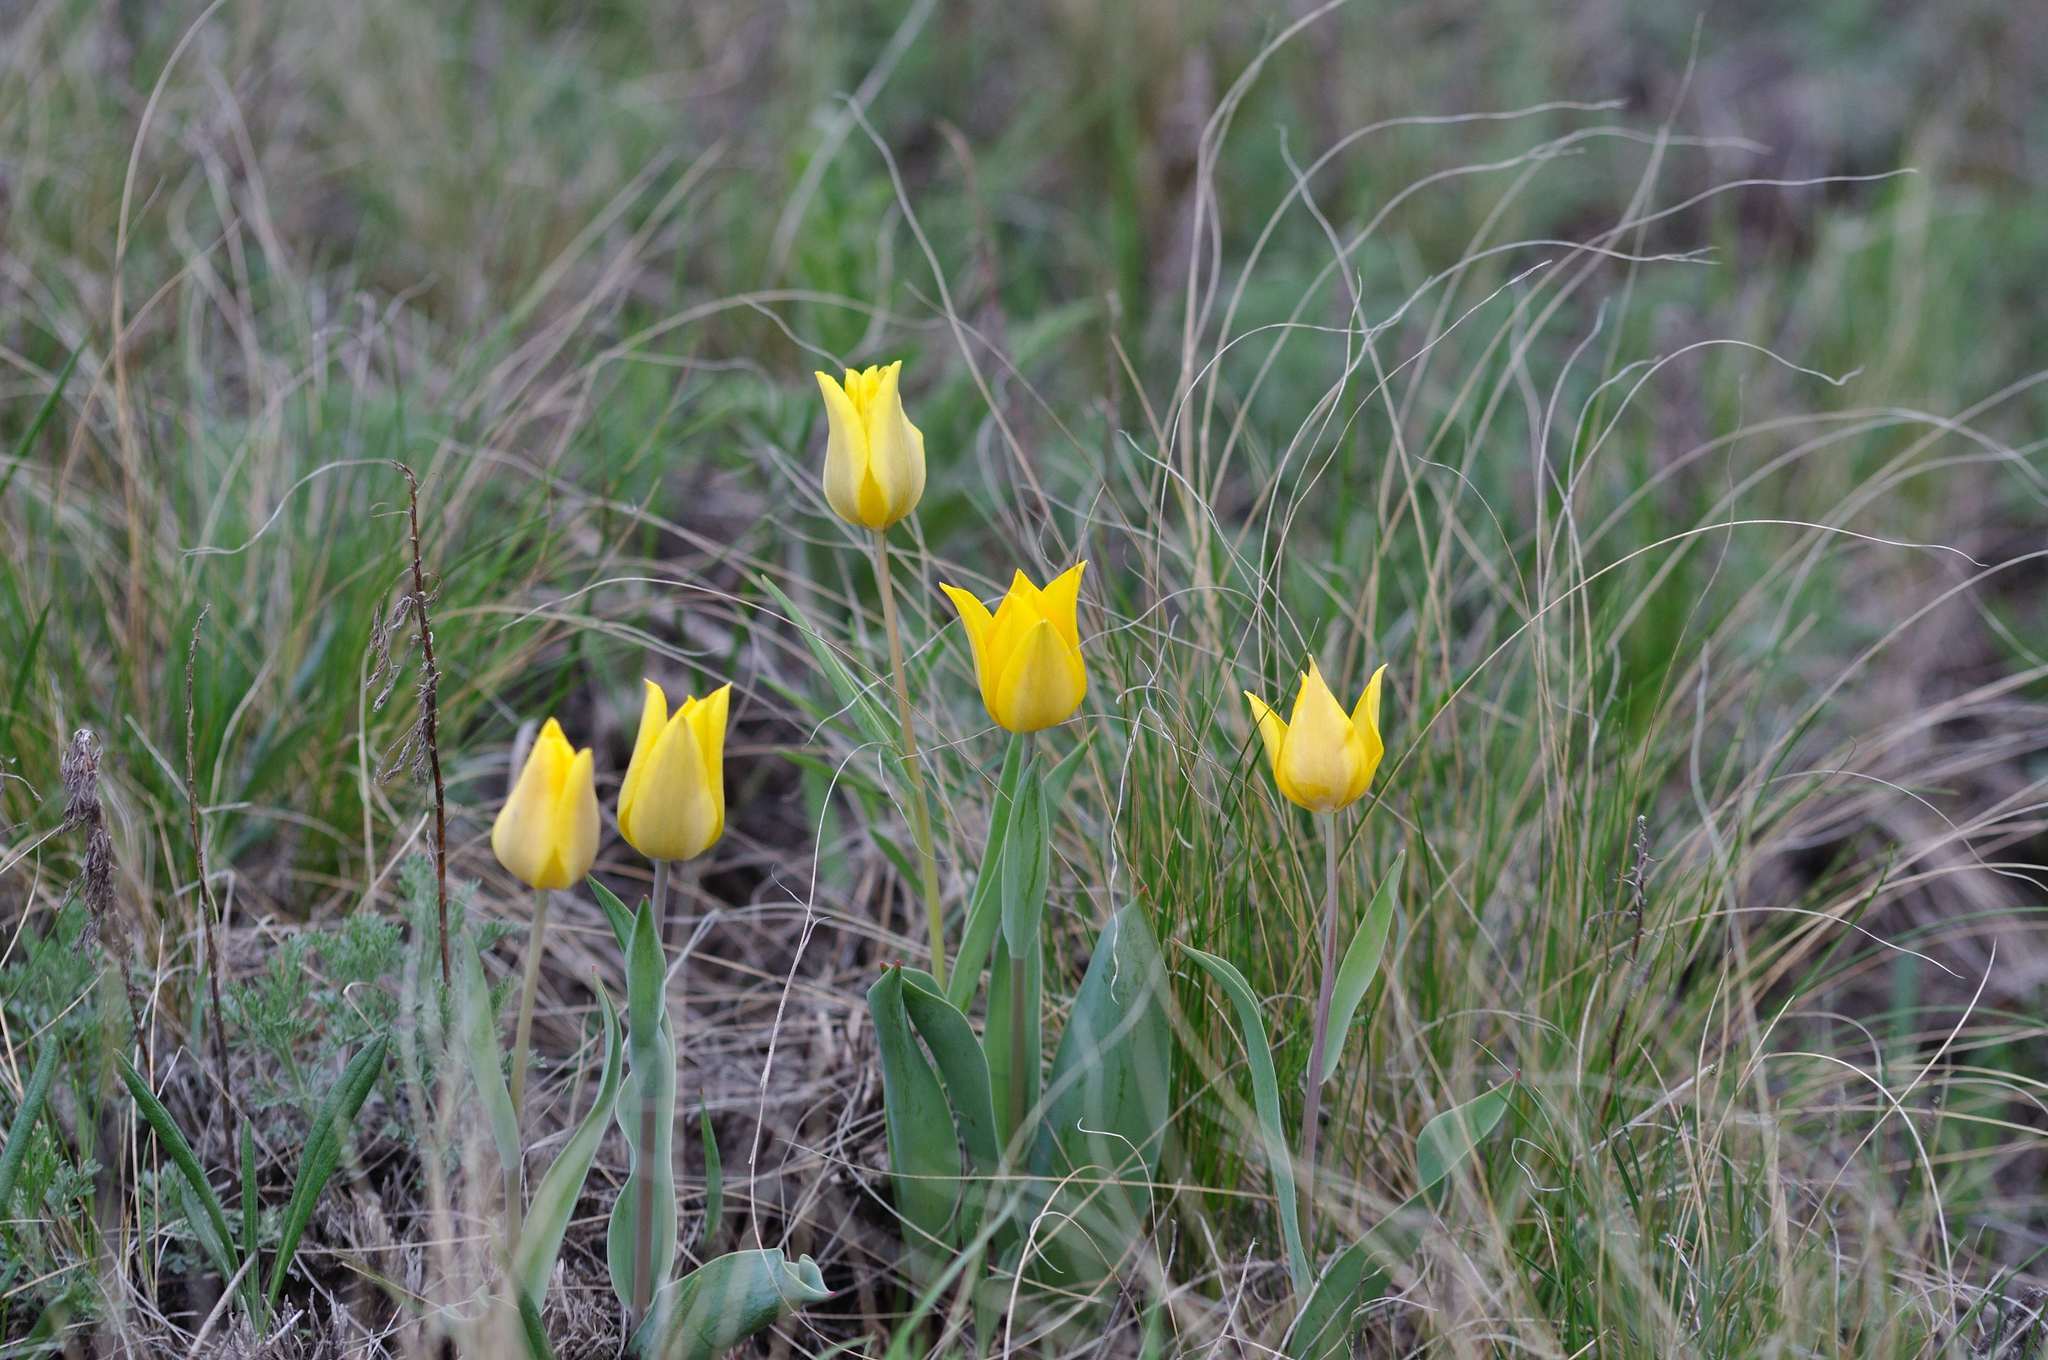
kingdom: Plantae
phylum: Tracheophyta
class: Liliopsida
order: Liliales
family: Liliaceae
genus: Tulipa
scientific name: Tulipa suaveolens
